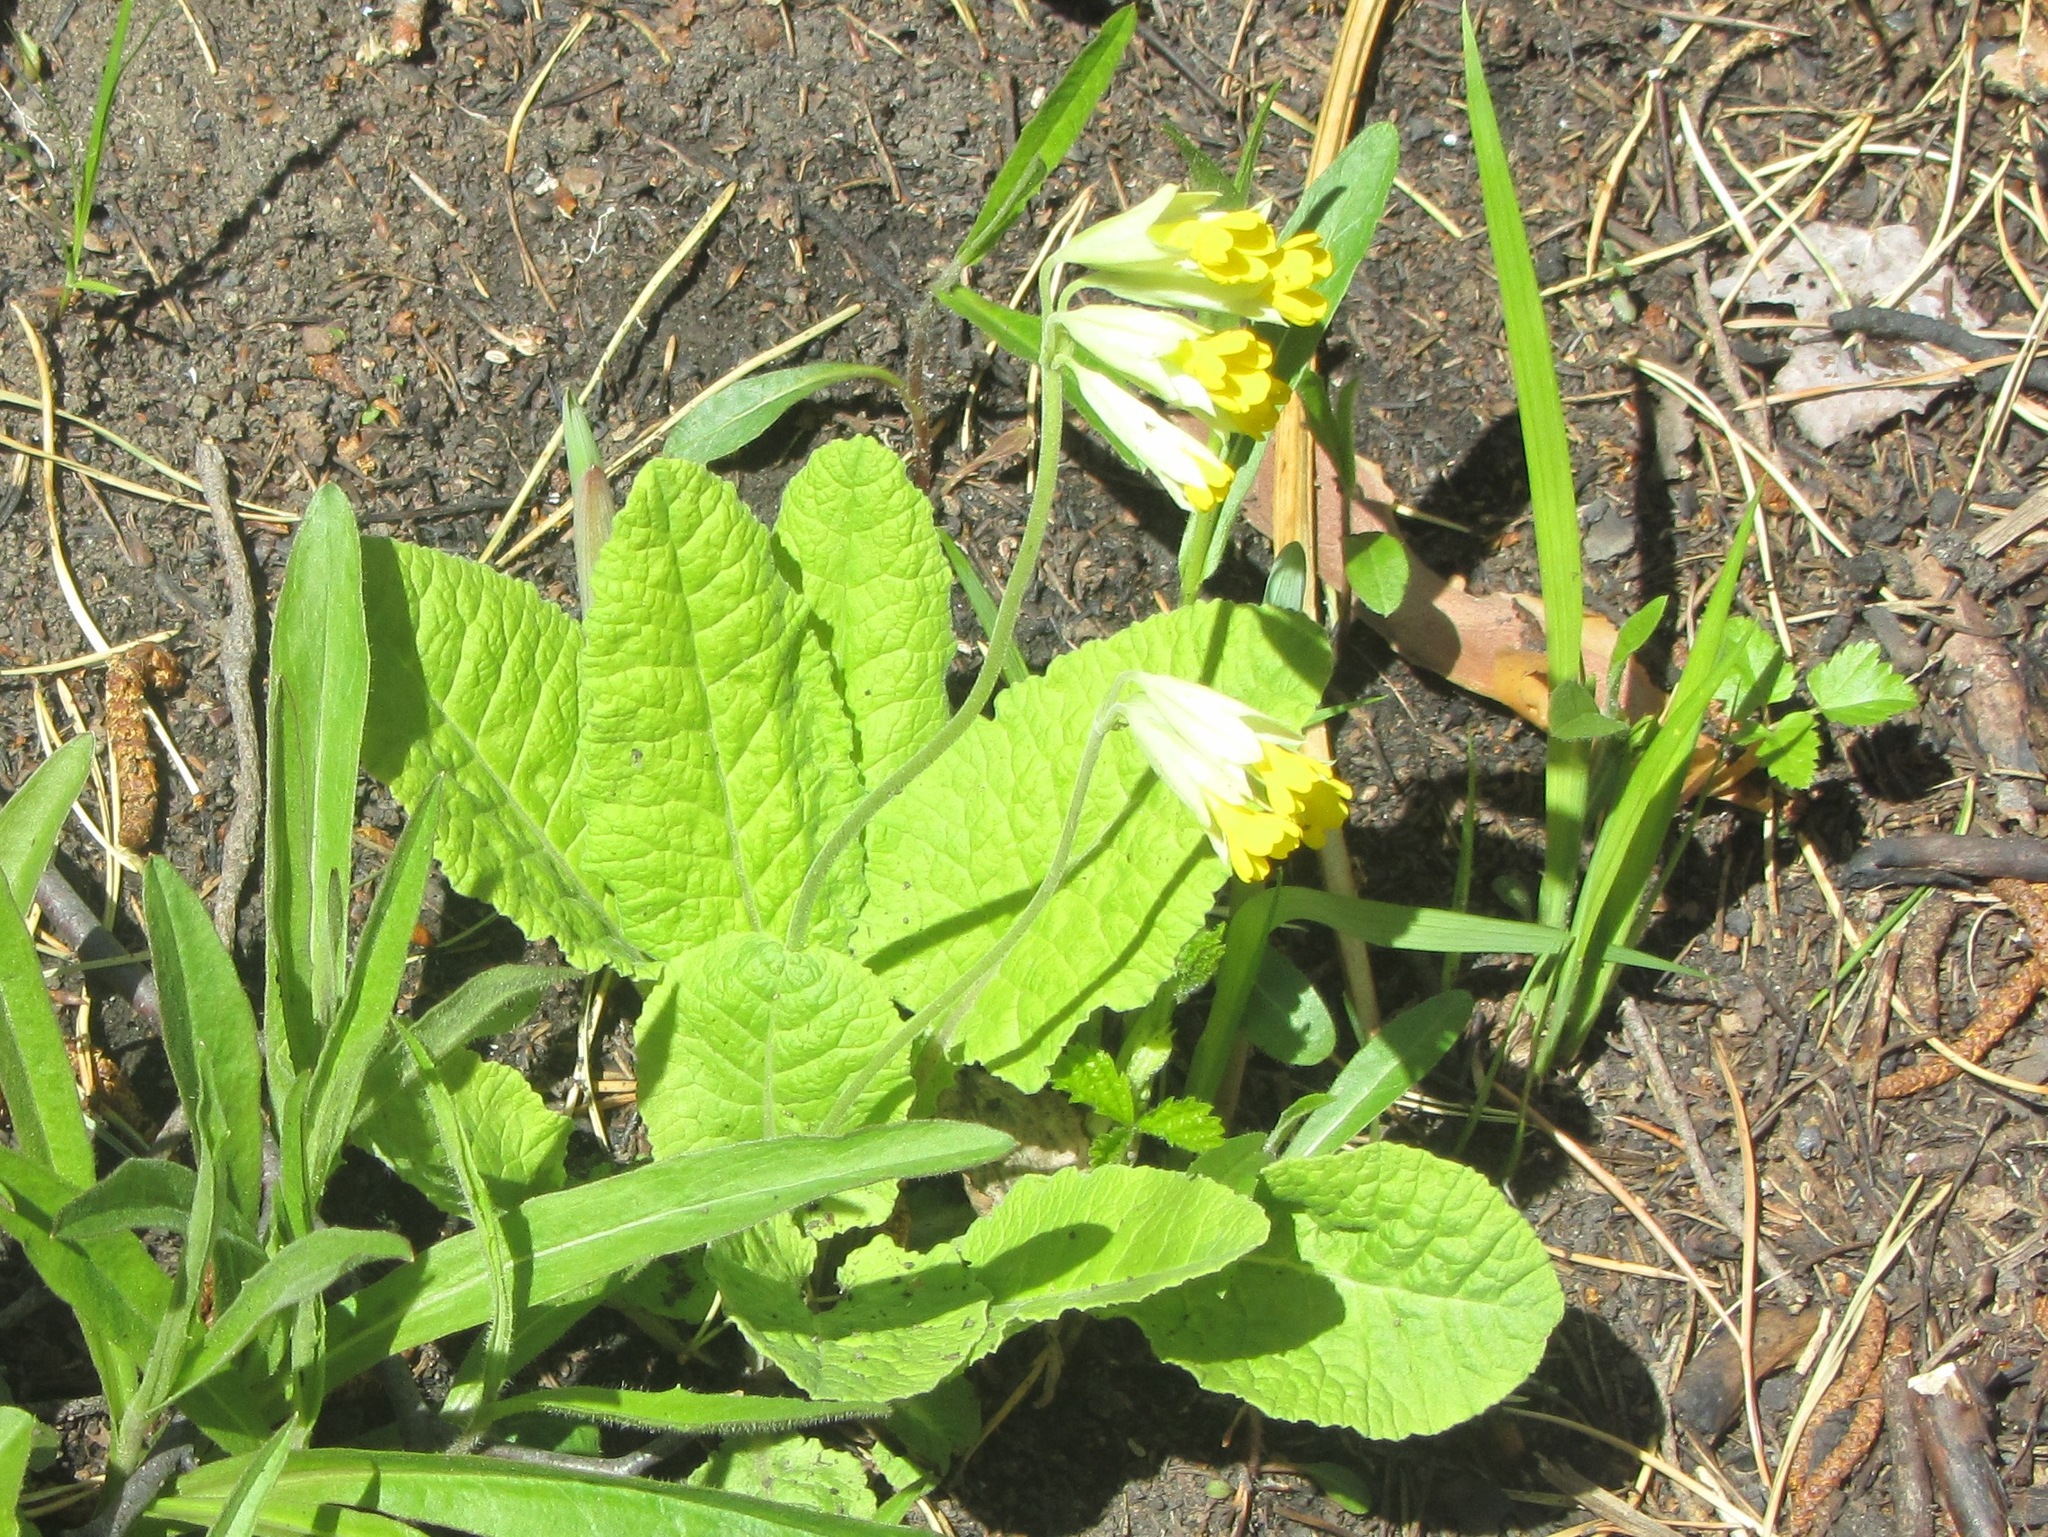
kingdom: Plantae
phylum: Tracheophyta
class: Magnoliopsida
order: Ericales
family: Primulaceae
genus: Primula
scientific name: Primula veris
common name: Cowslip
